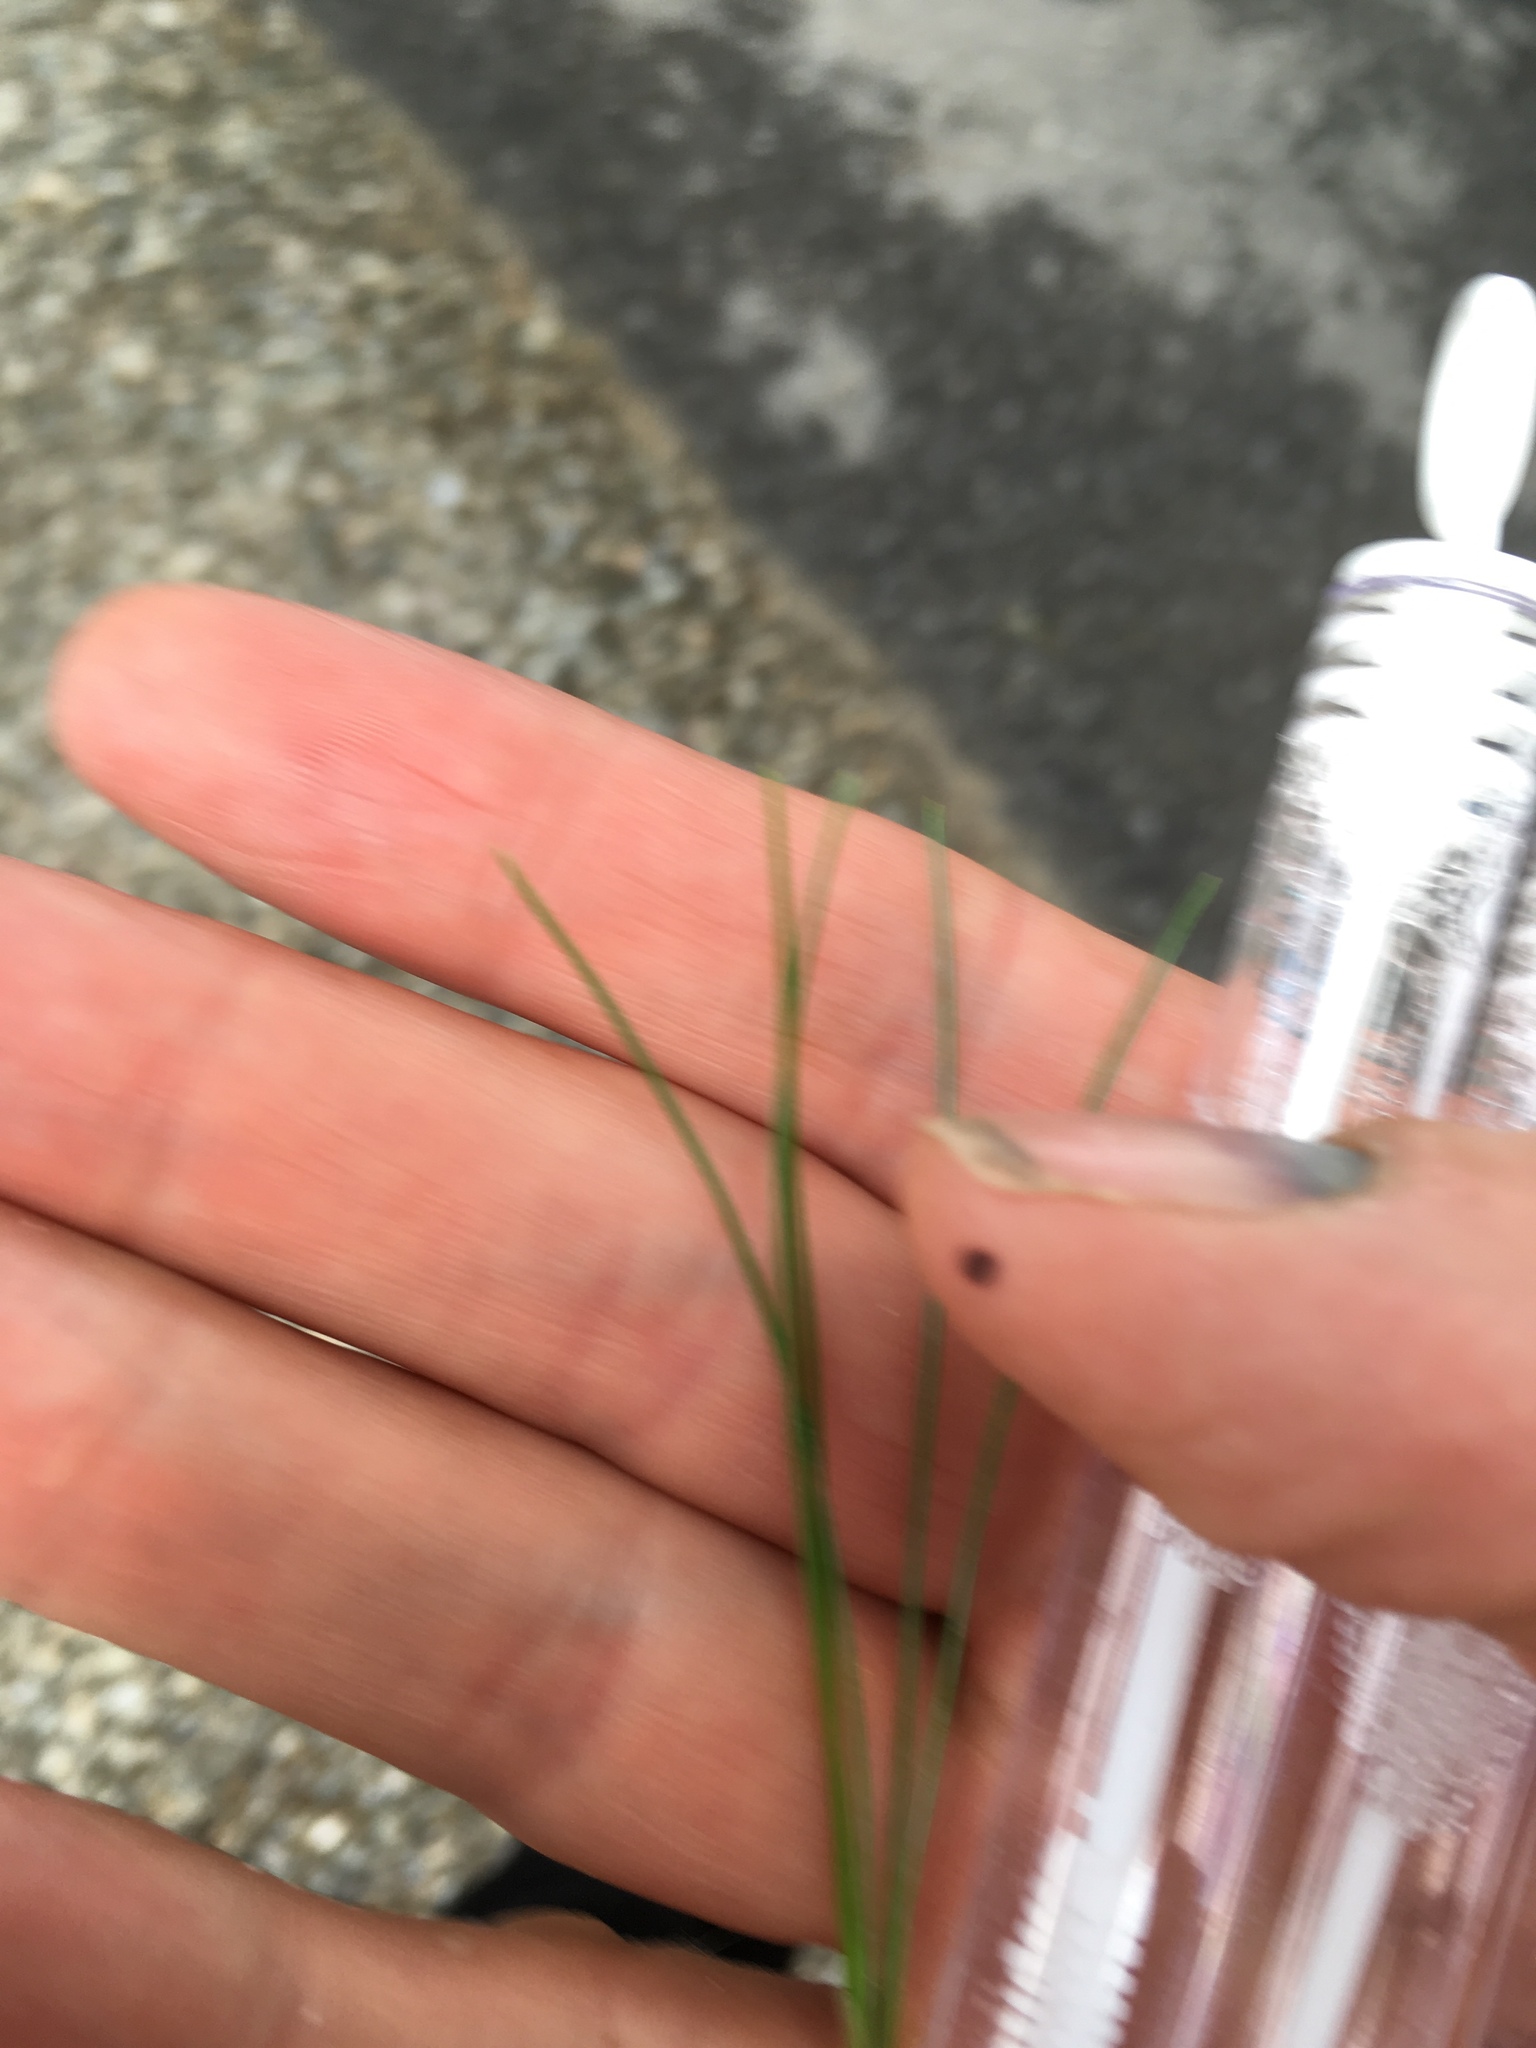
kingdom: Plantae
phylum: Tracheophyta
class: Pinopsida
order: Pinales
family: Pinaceae
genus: Pinus
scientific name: Pinus strobus
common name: Weymouth pine
